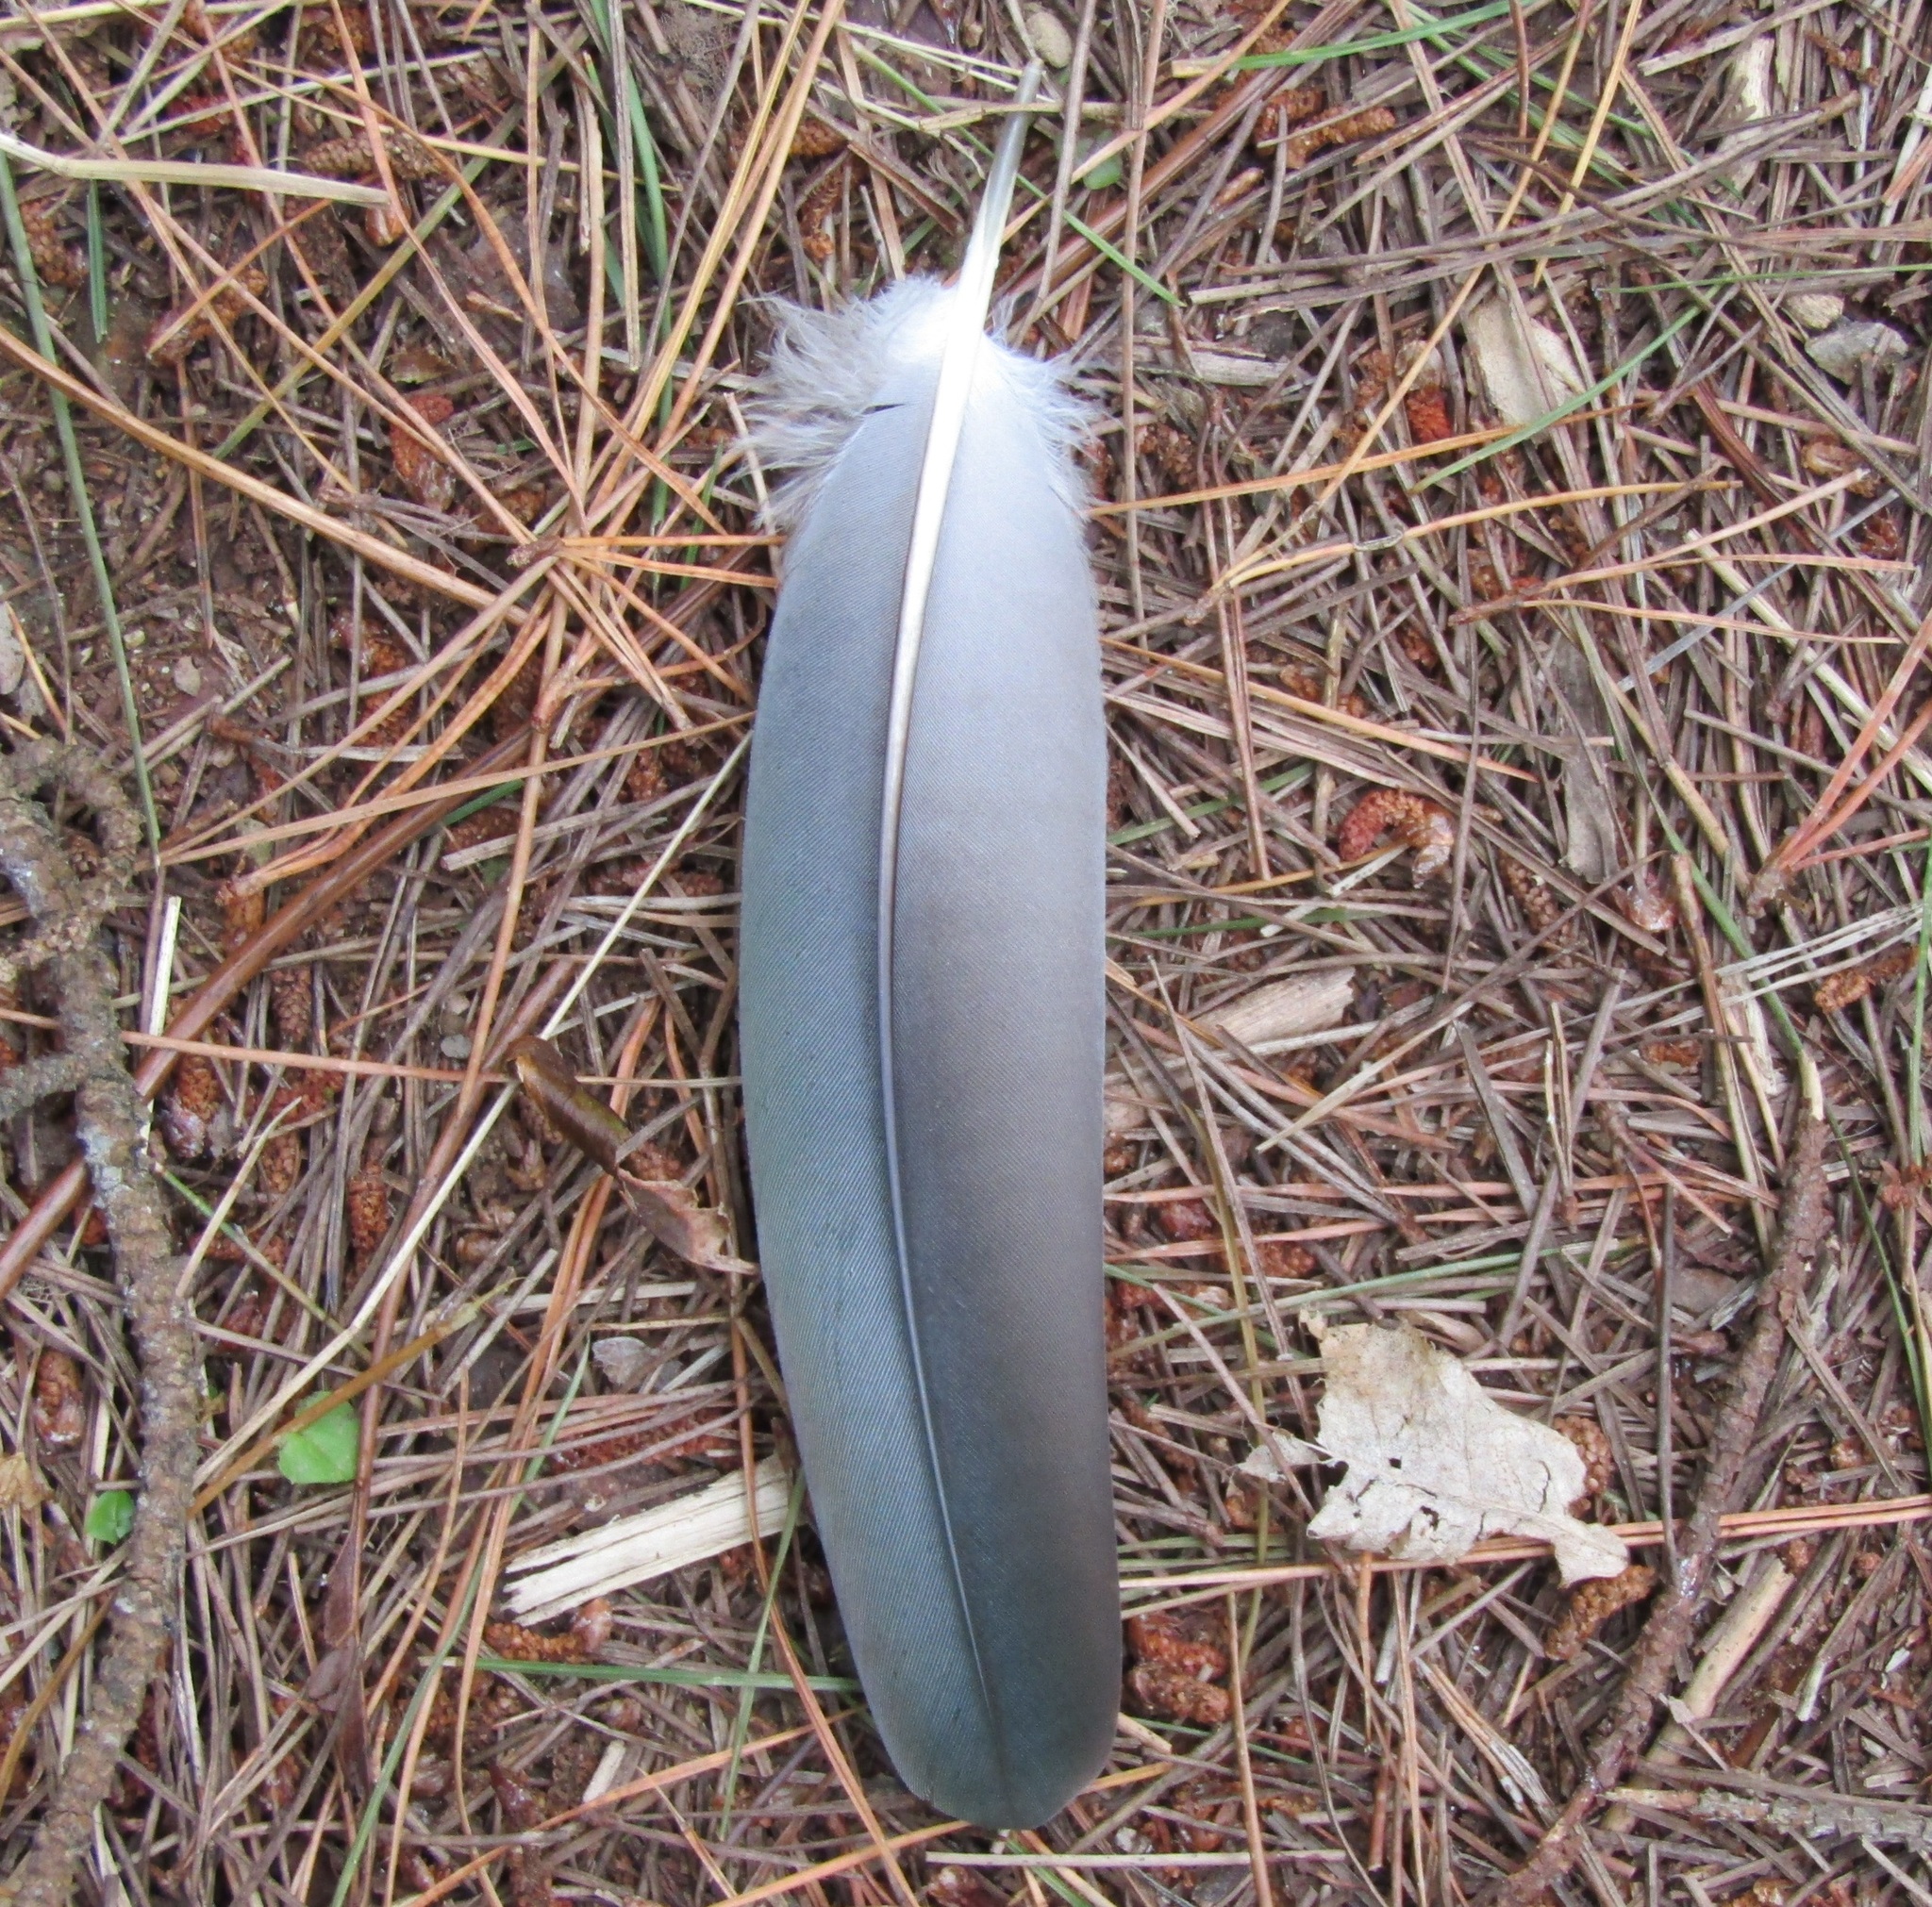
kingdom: Animalia
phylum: Chordata
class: Aves
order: Columbiformes
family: Columbidae
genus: Hemiphaga
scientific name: Hemiphaga novaeseelandiae
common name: New zealand pigeon
